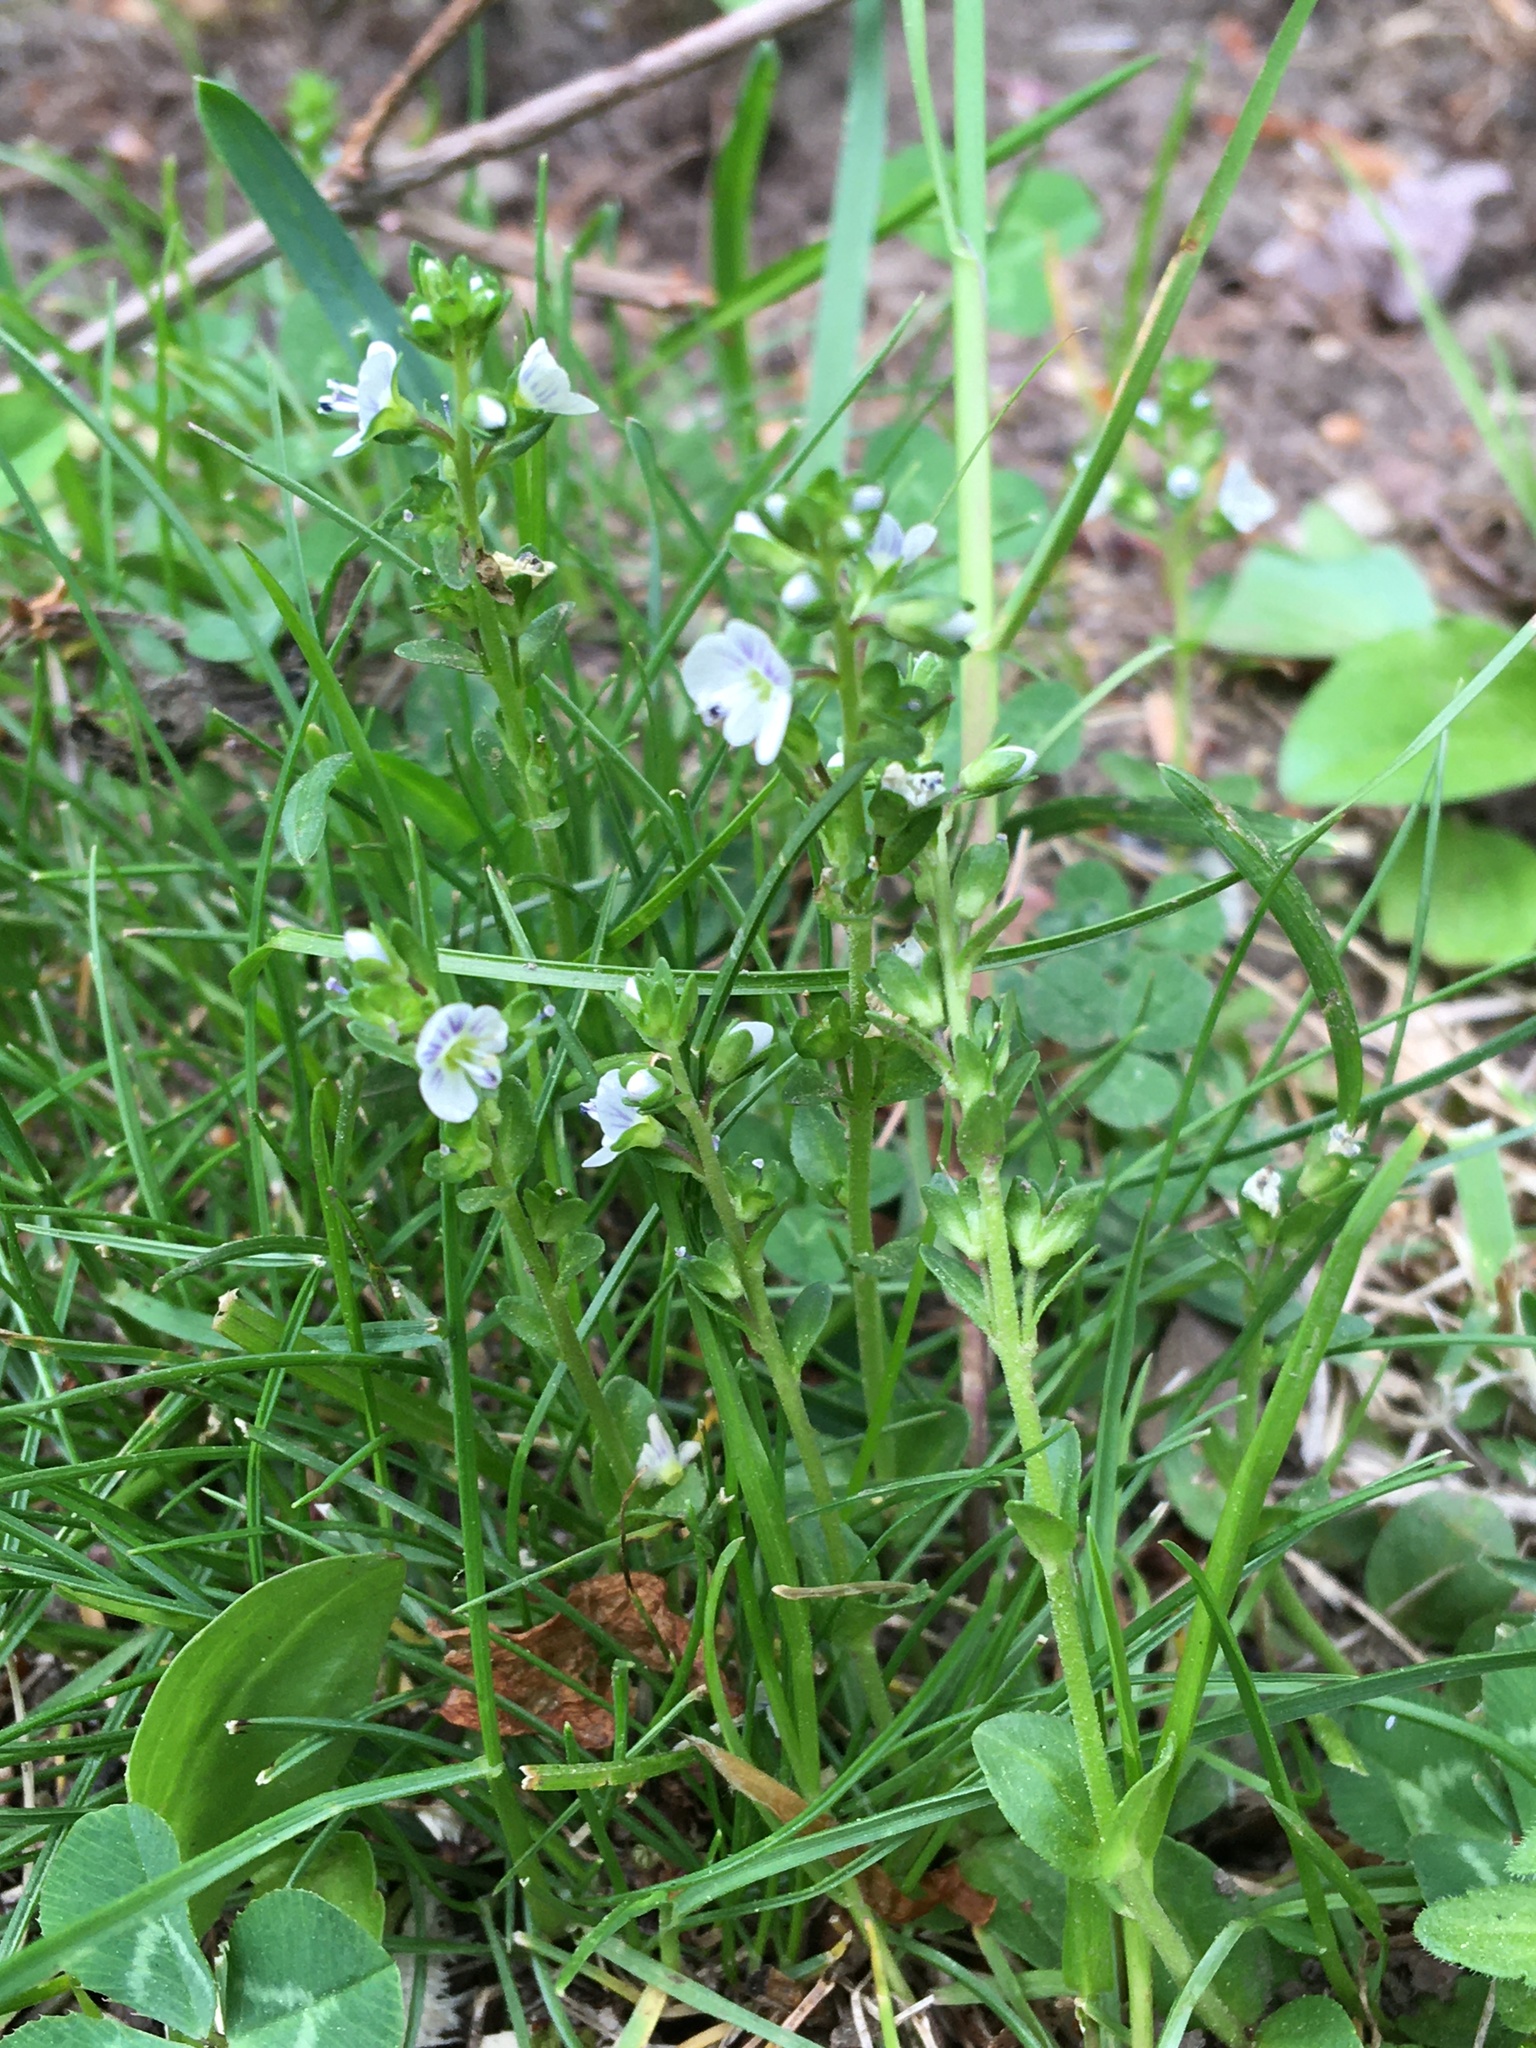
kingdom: Plantae
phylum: Tracheophyta
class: Magnoliopsida
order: Lamiales
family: Plantaginaceae
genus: Veronica
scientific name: Veronica serpyllifolia
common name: Thyme-leaved speedwell
